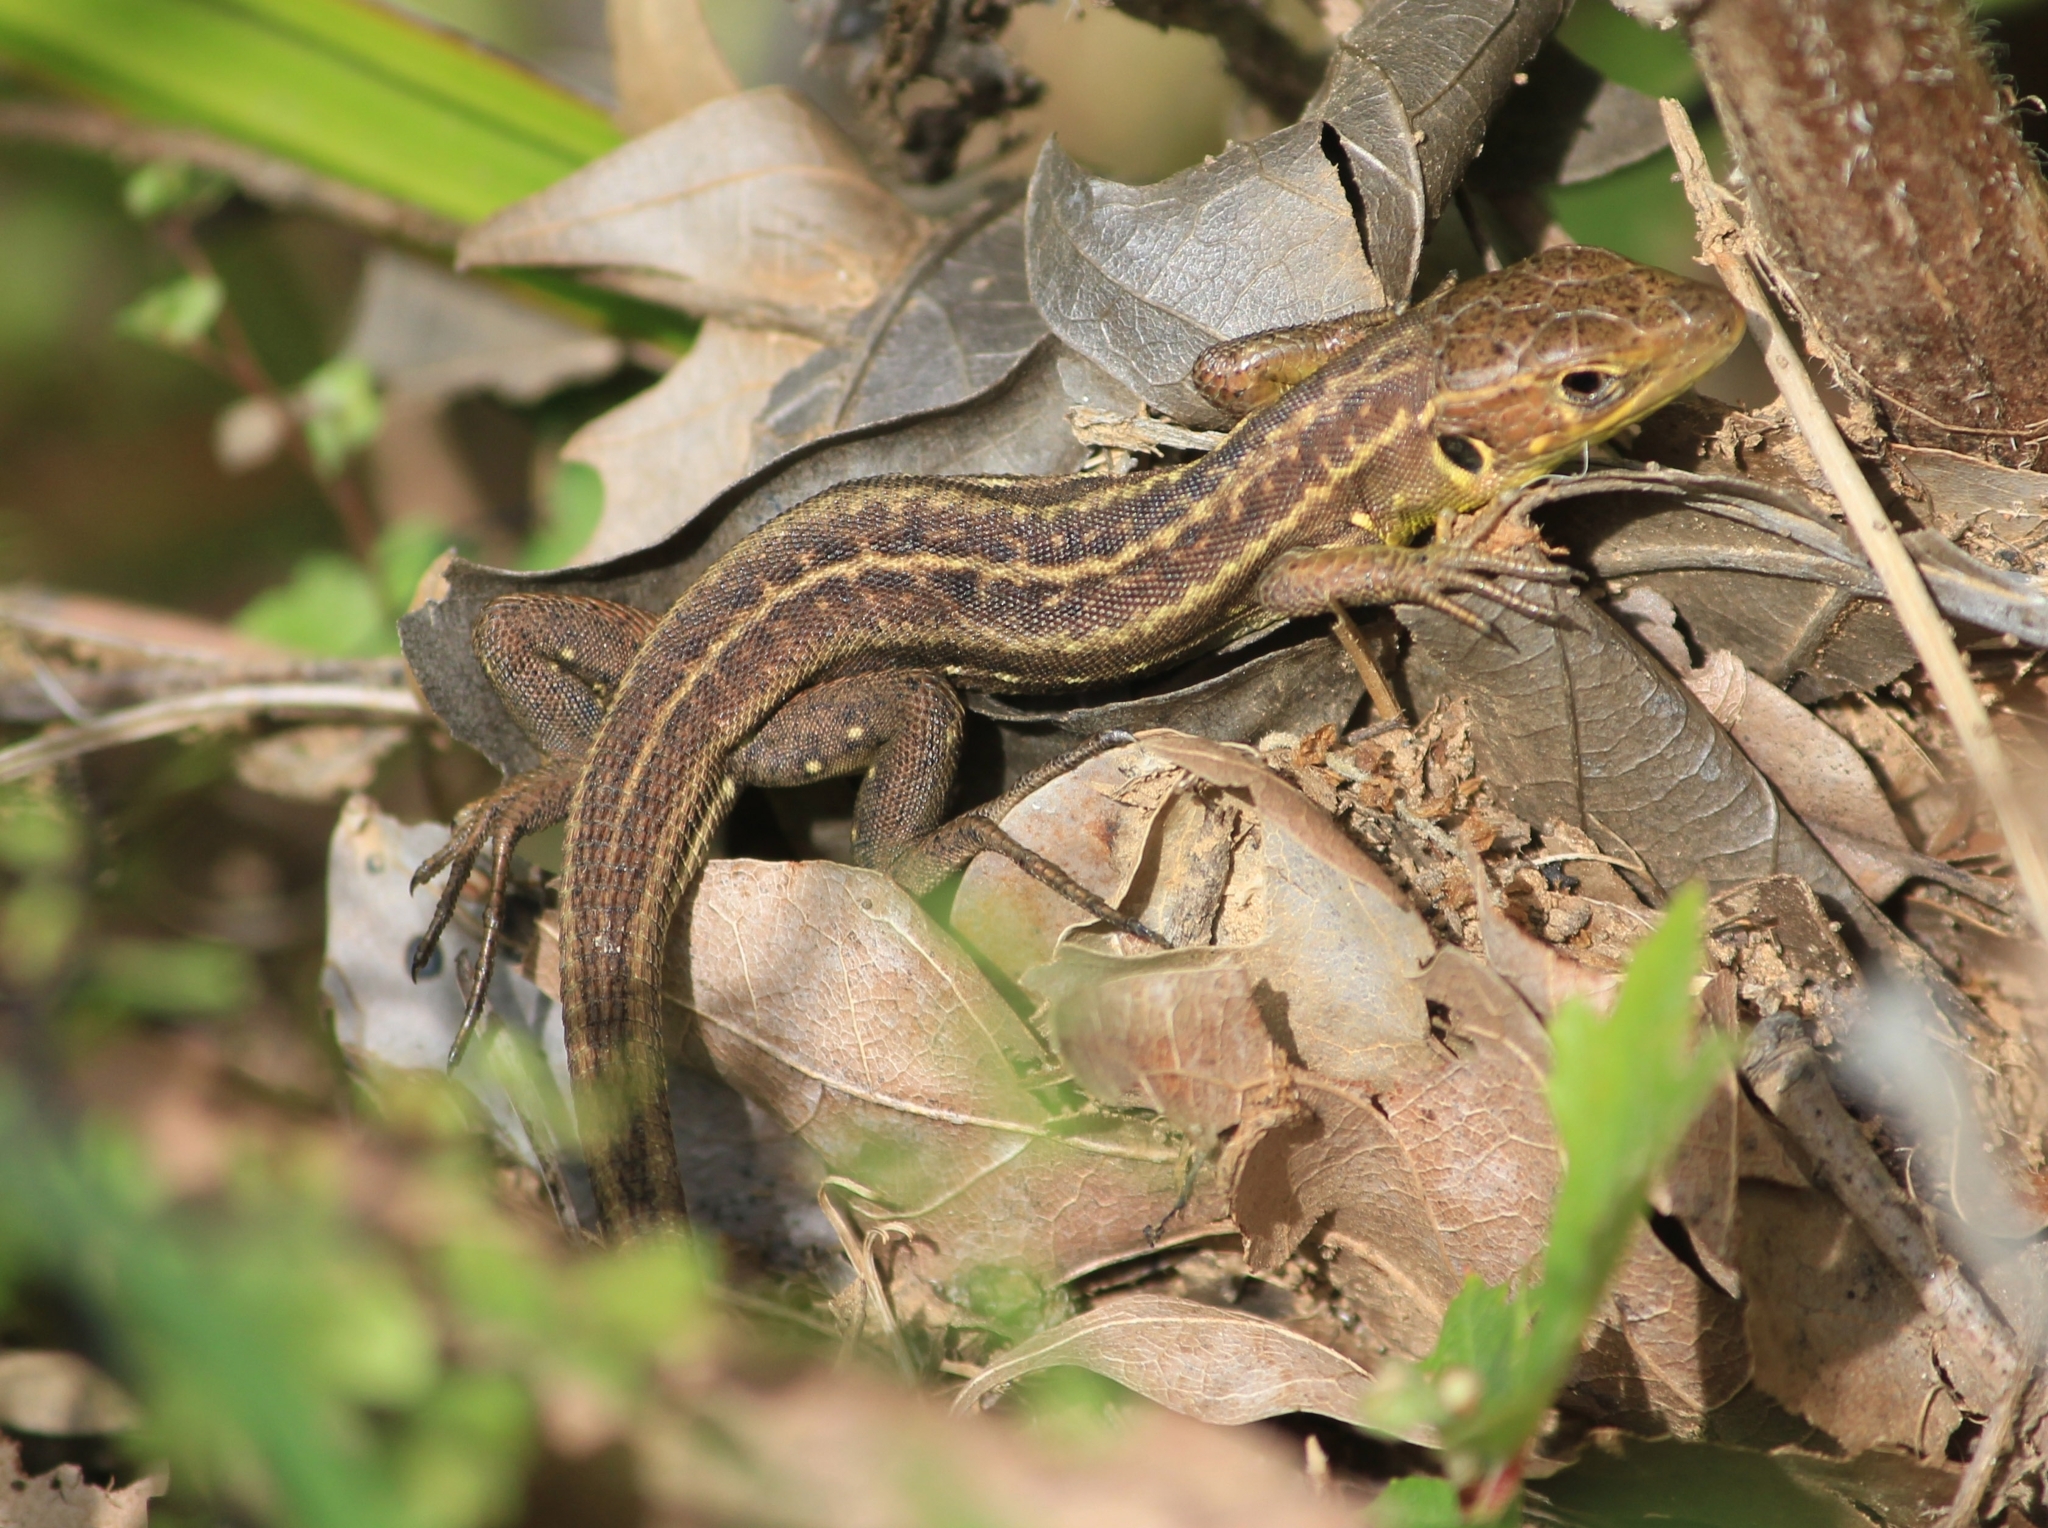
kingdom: Animalia
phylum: Chordata
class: Squamata
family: Lacertidae
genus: Lacerta
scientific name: Lacerta trilineata
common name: Balkan green lizard
